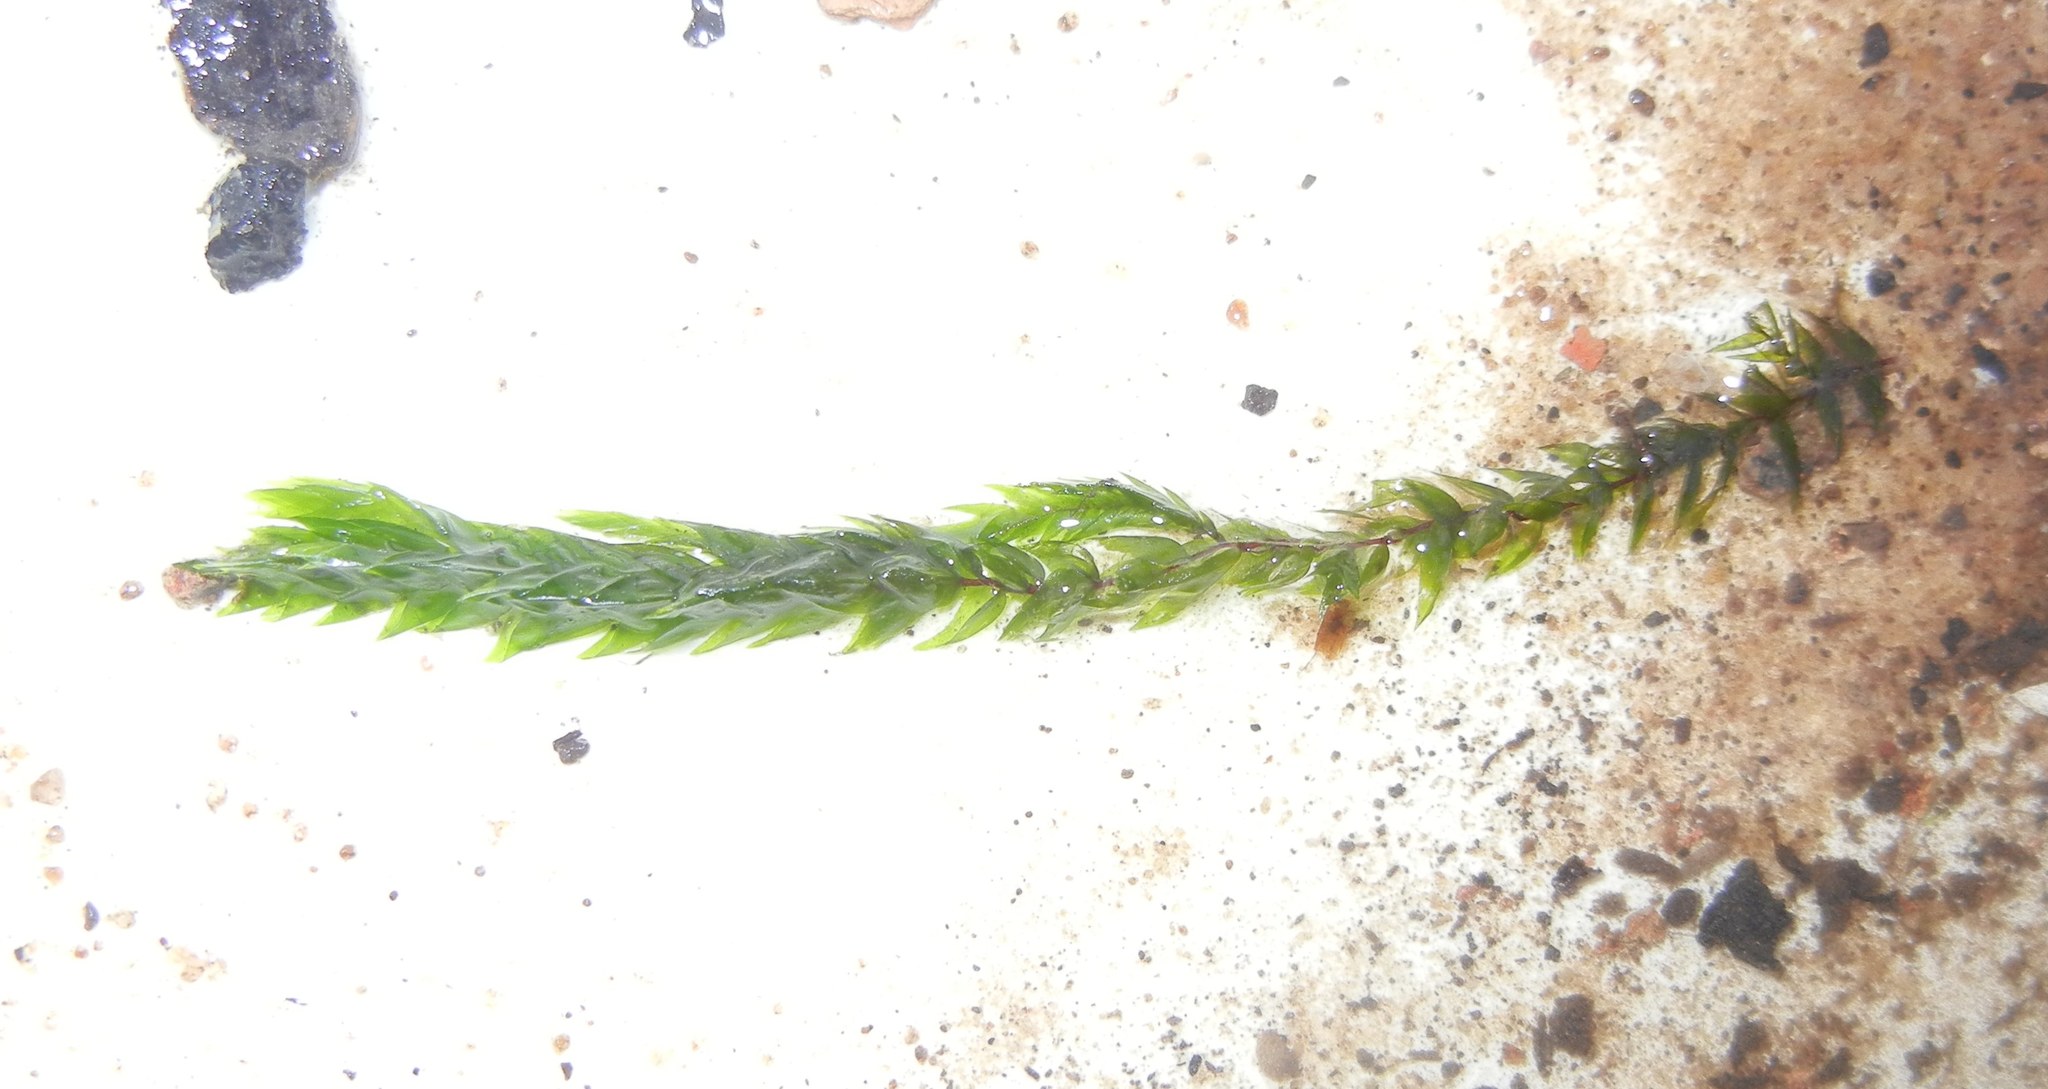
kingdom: Plantae
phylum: Bryophyta
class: Bryopsida
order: Hypnales
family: Fontinalaceae
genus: Fontinalis
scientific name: Fontinalis antipyretica
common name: Greater water-moss
